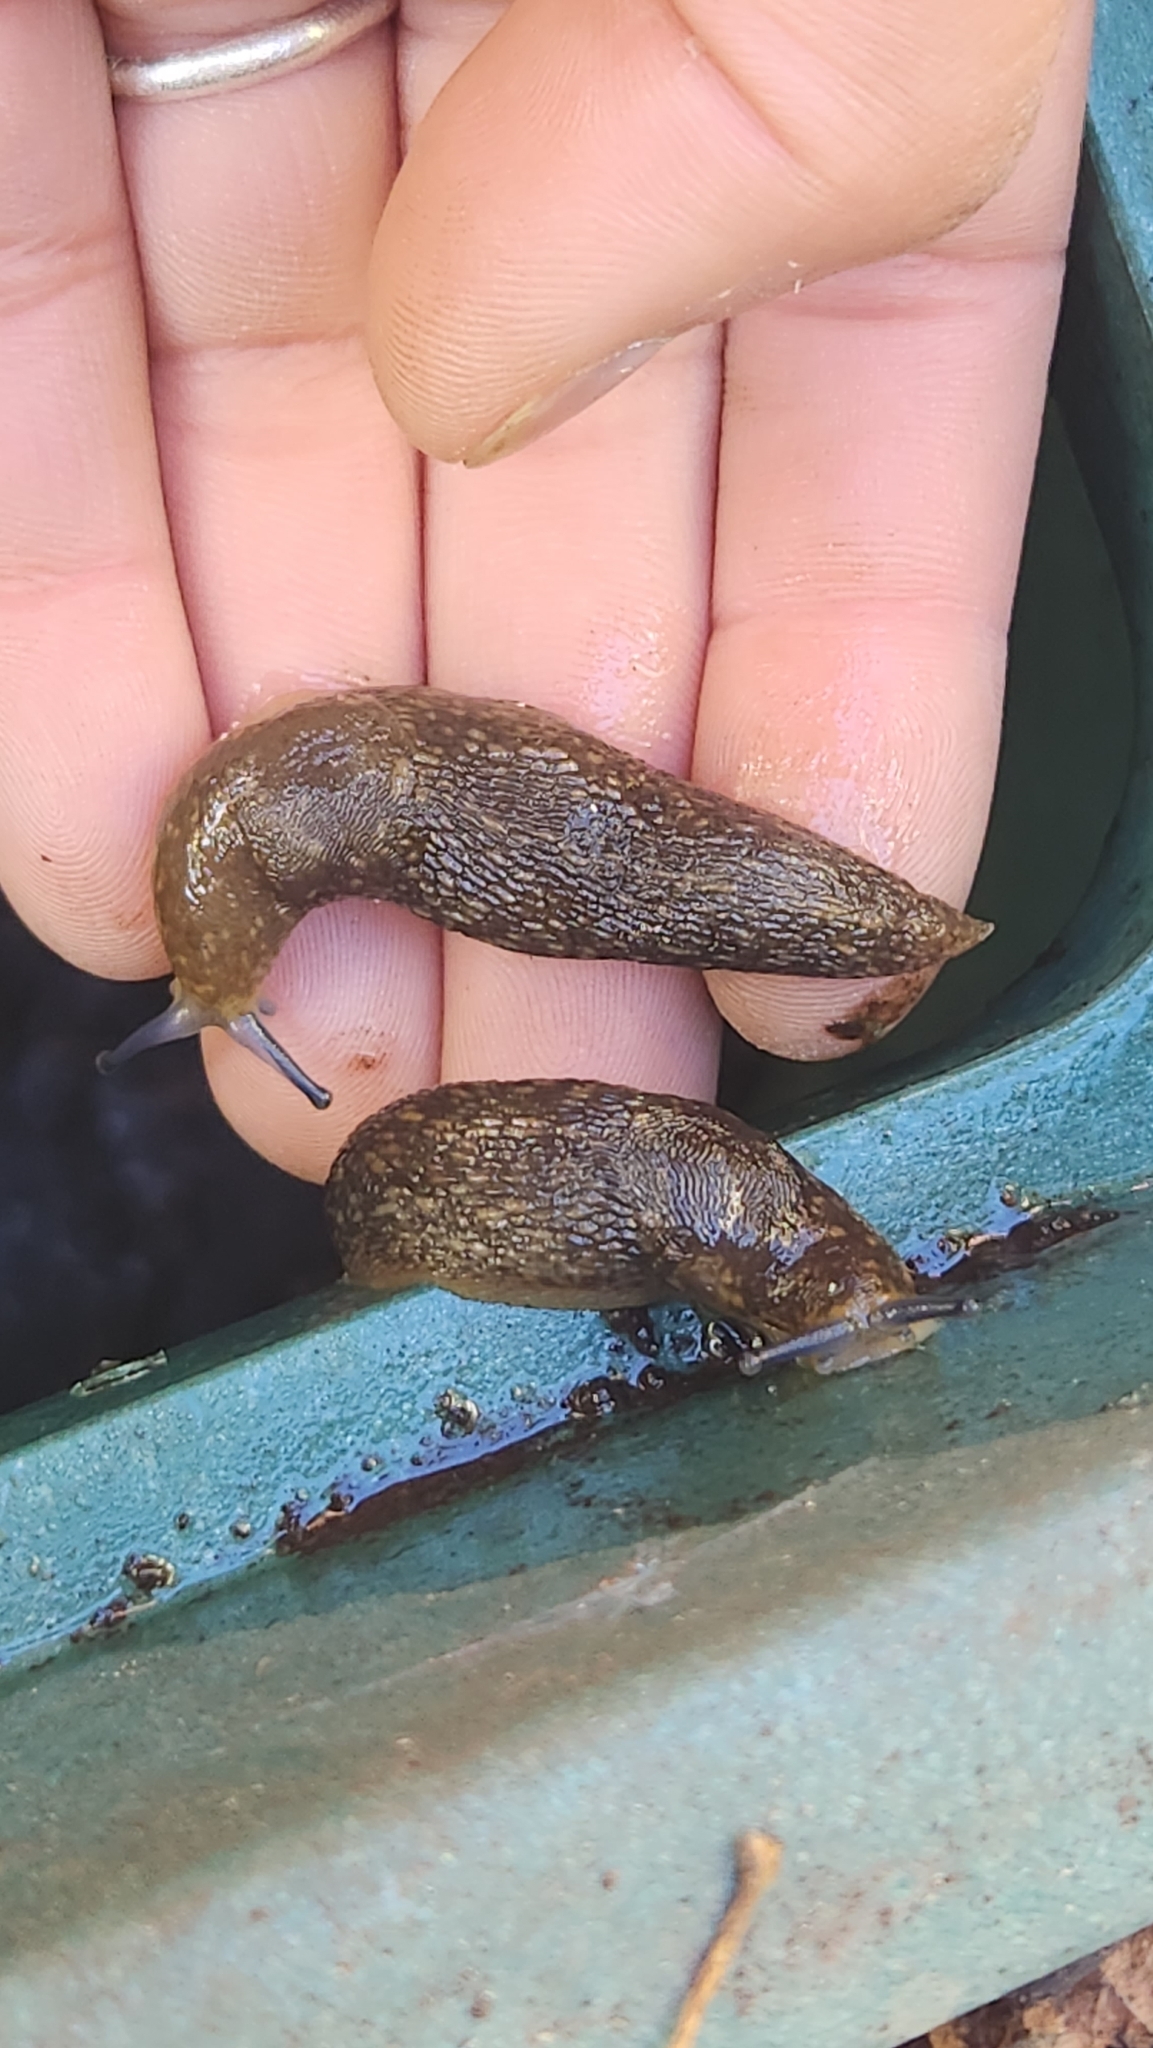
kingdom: Animalia
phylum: Mollusca
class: Gastropoda
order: Stylommatophora
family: Limacidae
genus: Limacus
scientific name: Limacus flavus
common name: Yellow gardenslug
